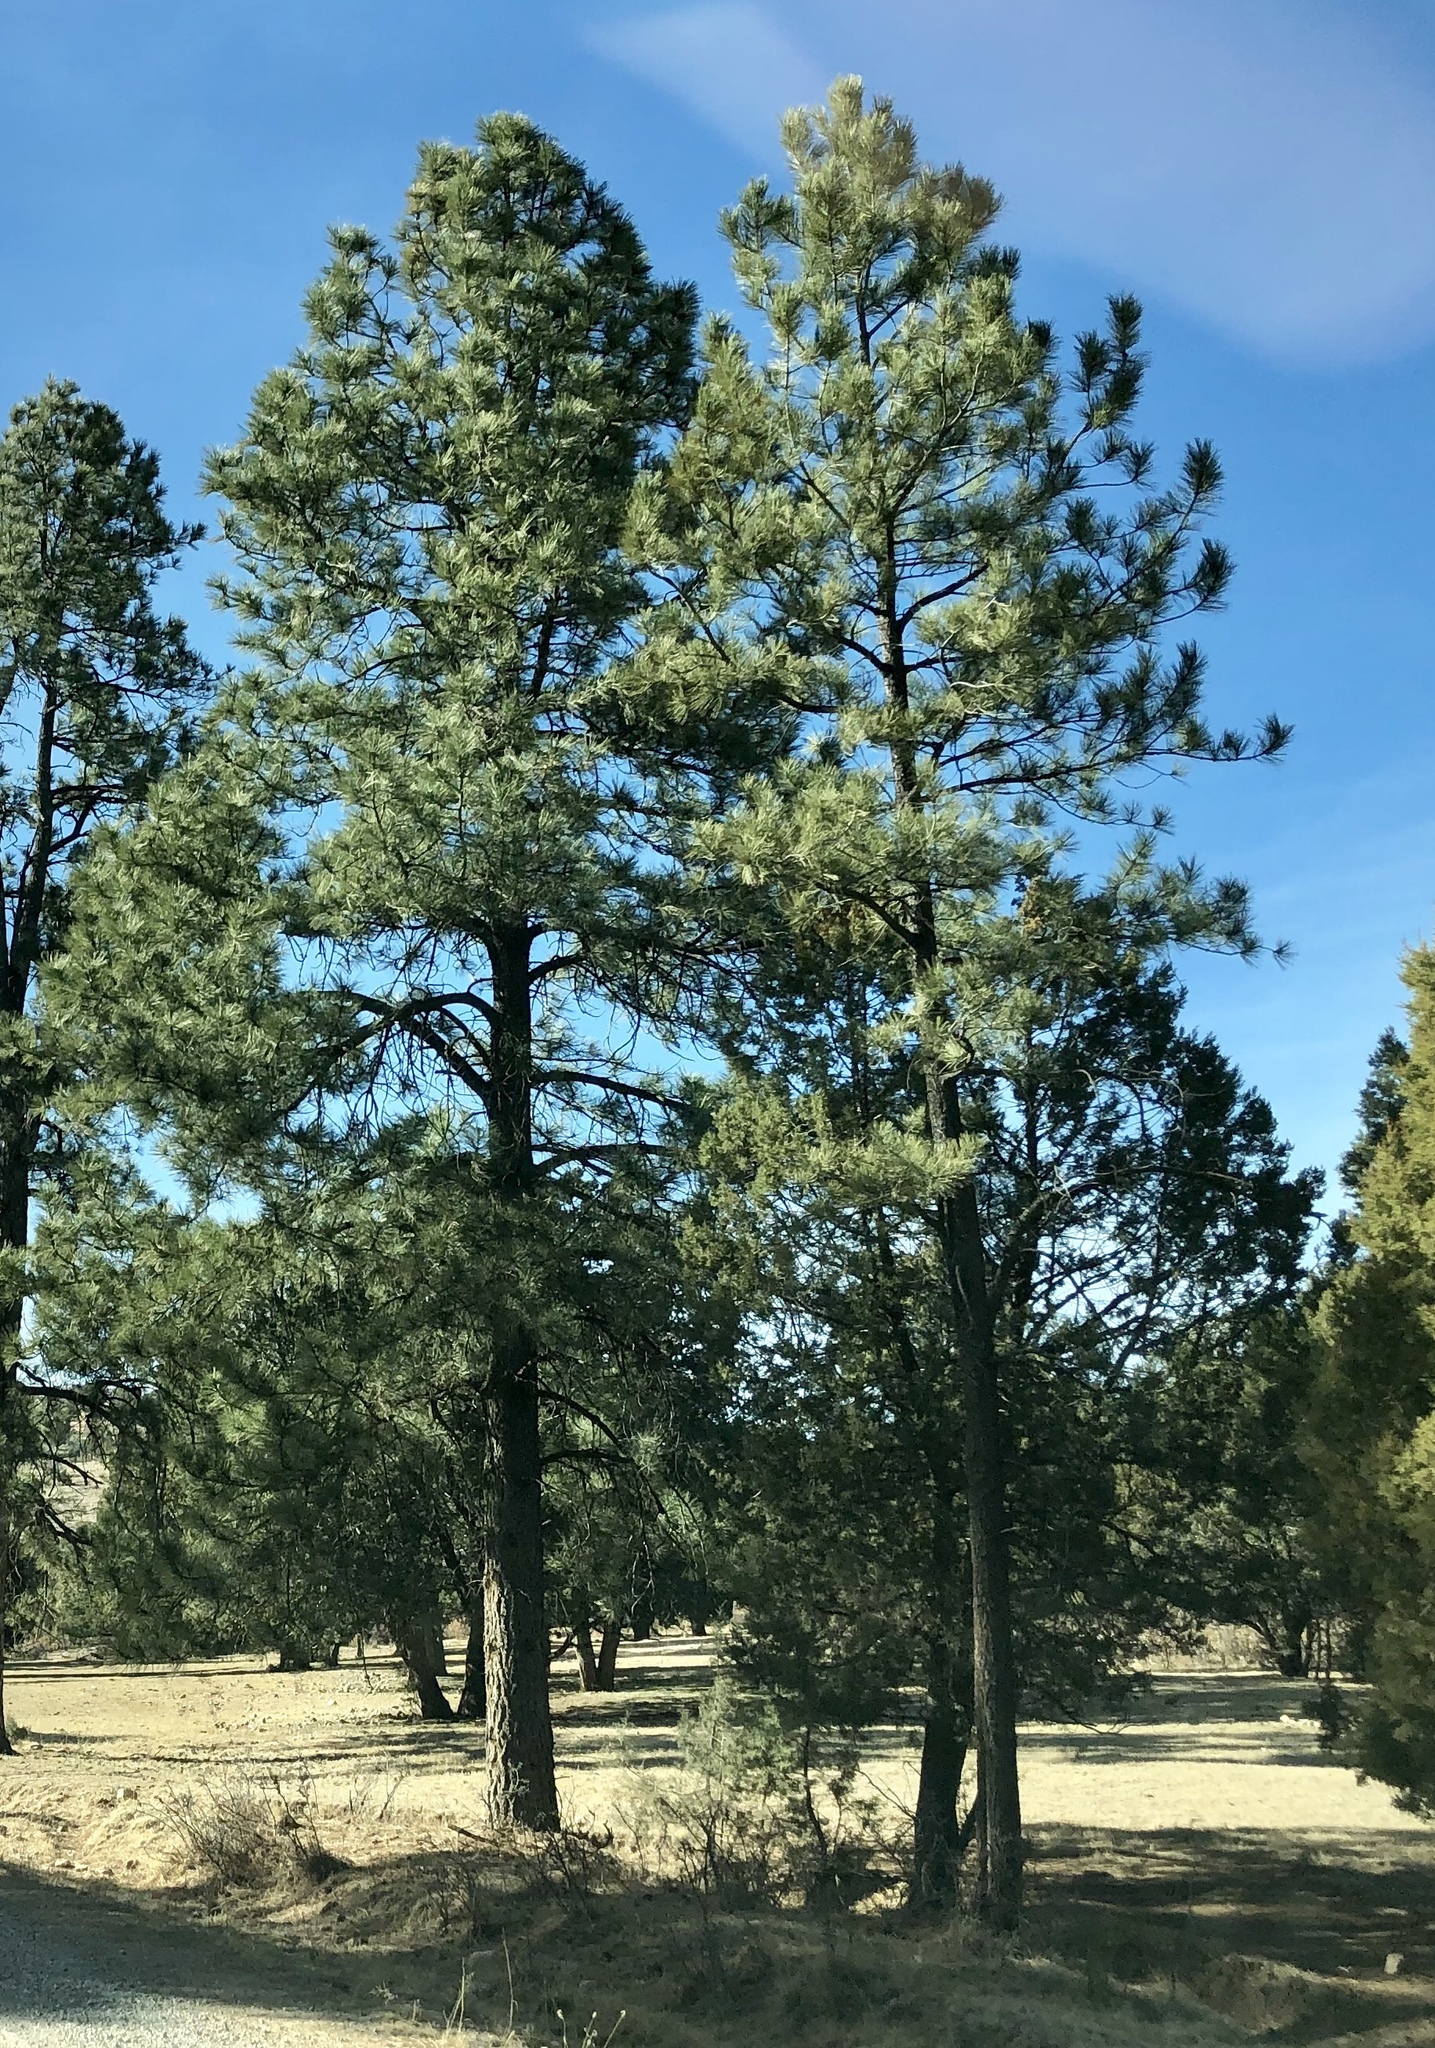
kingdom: Plantae
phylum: Tracheophyta
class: Pinopsida
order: Pinales
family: Pinaceae
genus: Pinus
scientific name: Pinus ponderosa
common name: Western yellow-pine
